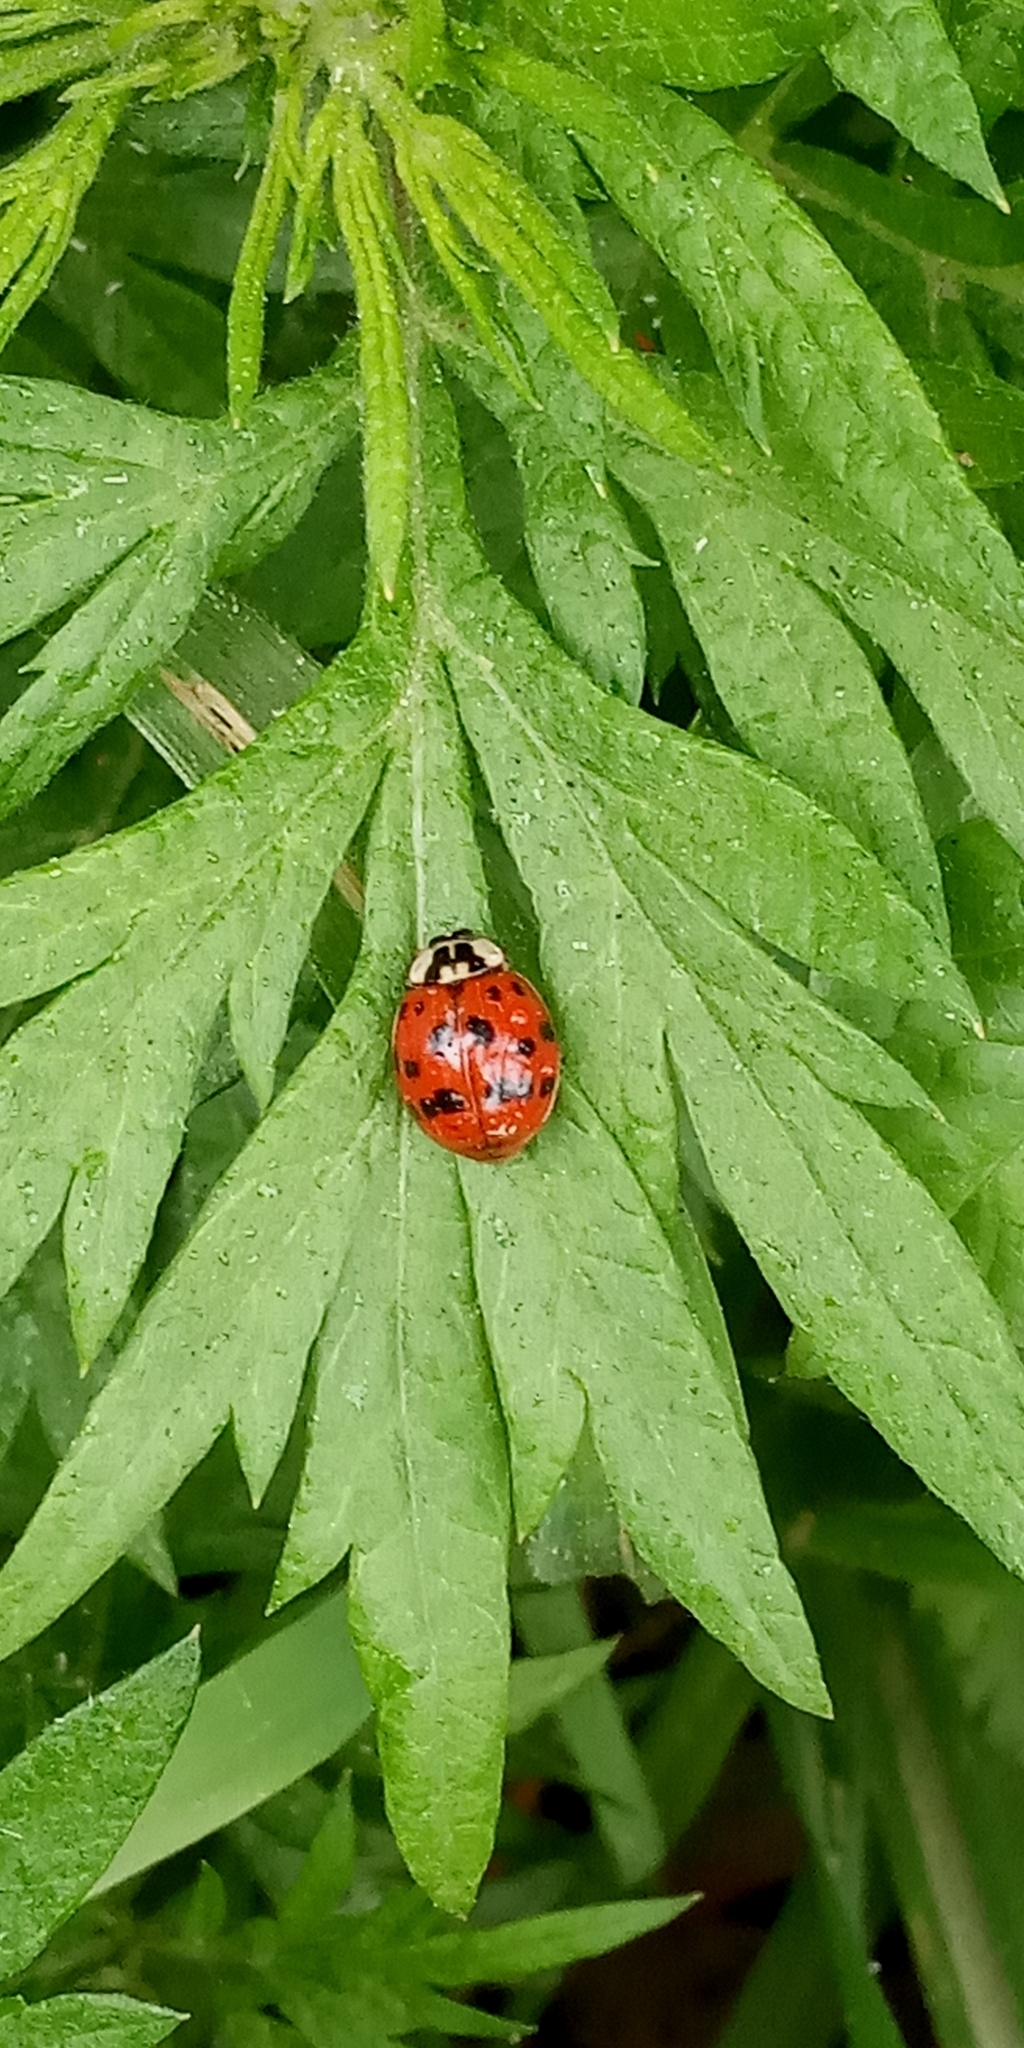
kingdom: Animalia
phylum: Arthropoda
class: Insecta
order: Coleoptera
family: Coccinellidae
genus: Harmonia
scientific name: Harmonia axyridis
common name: Harlequin ladybird
